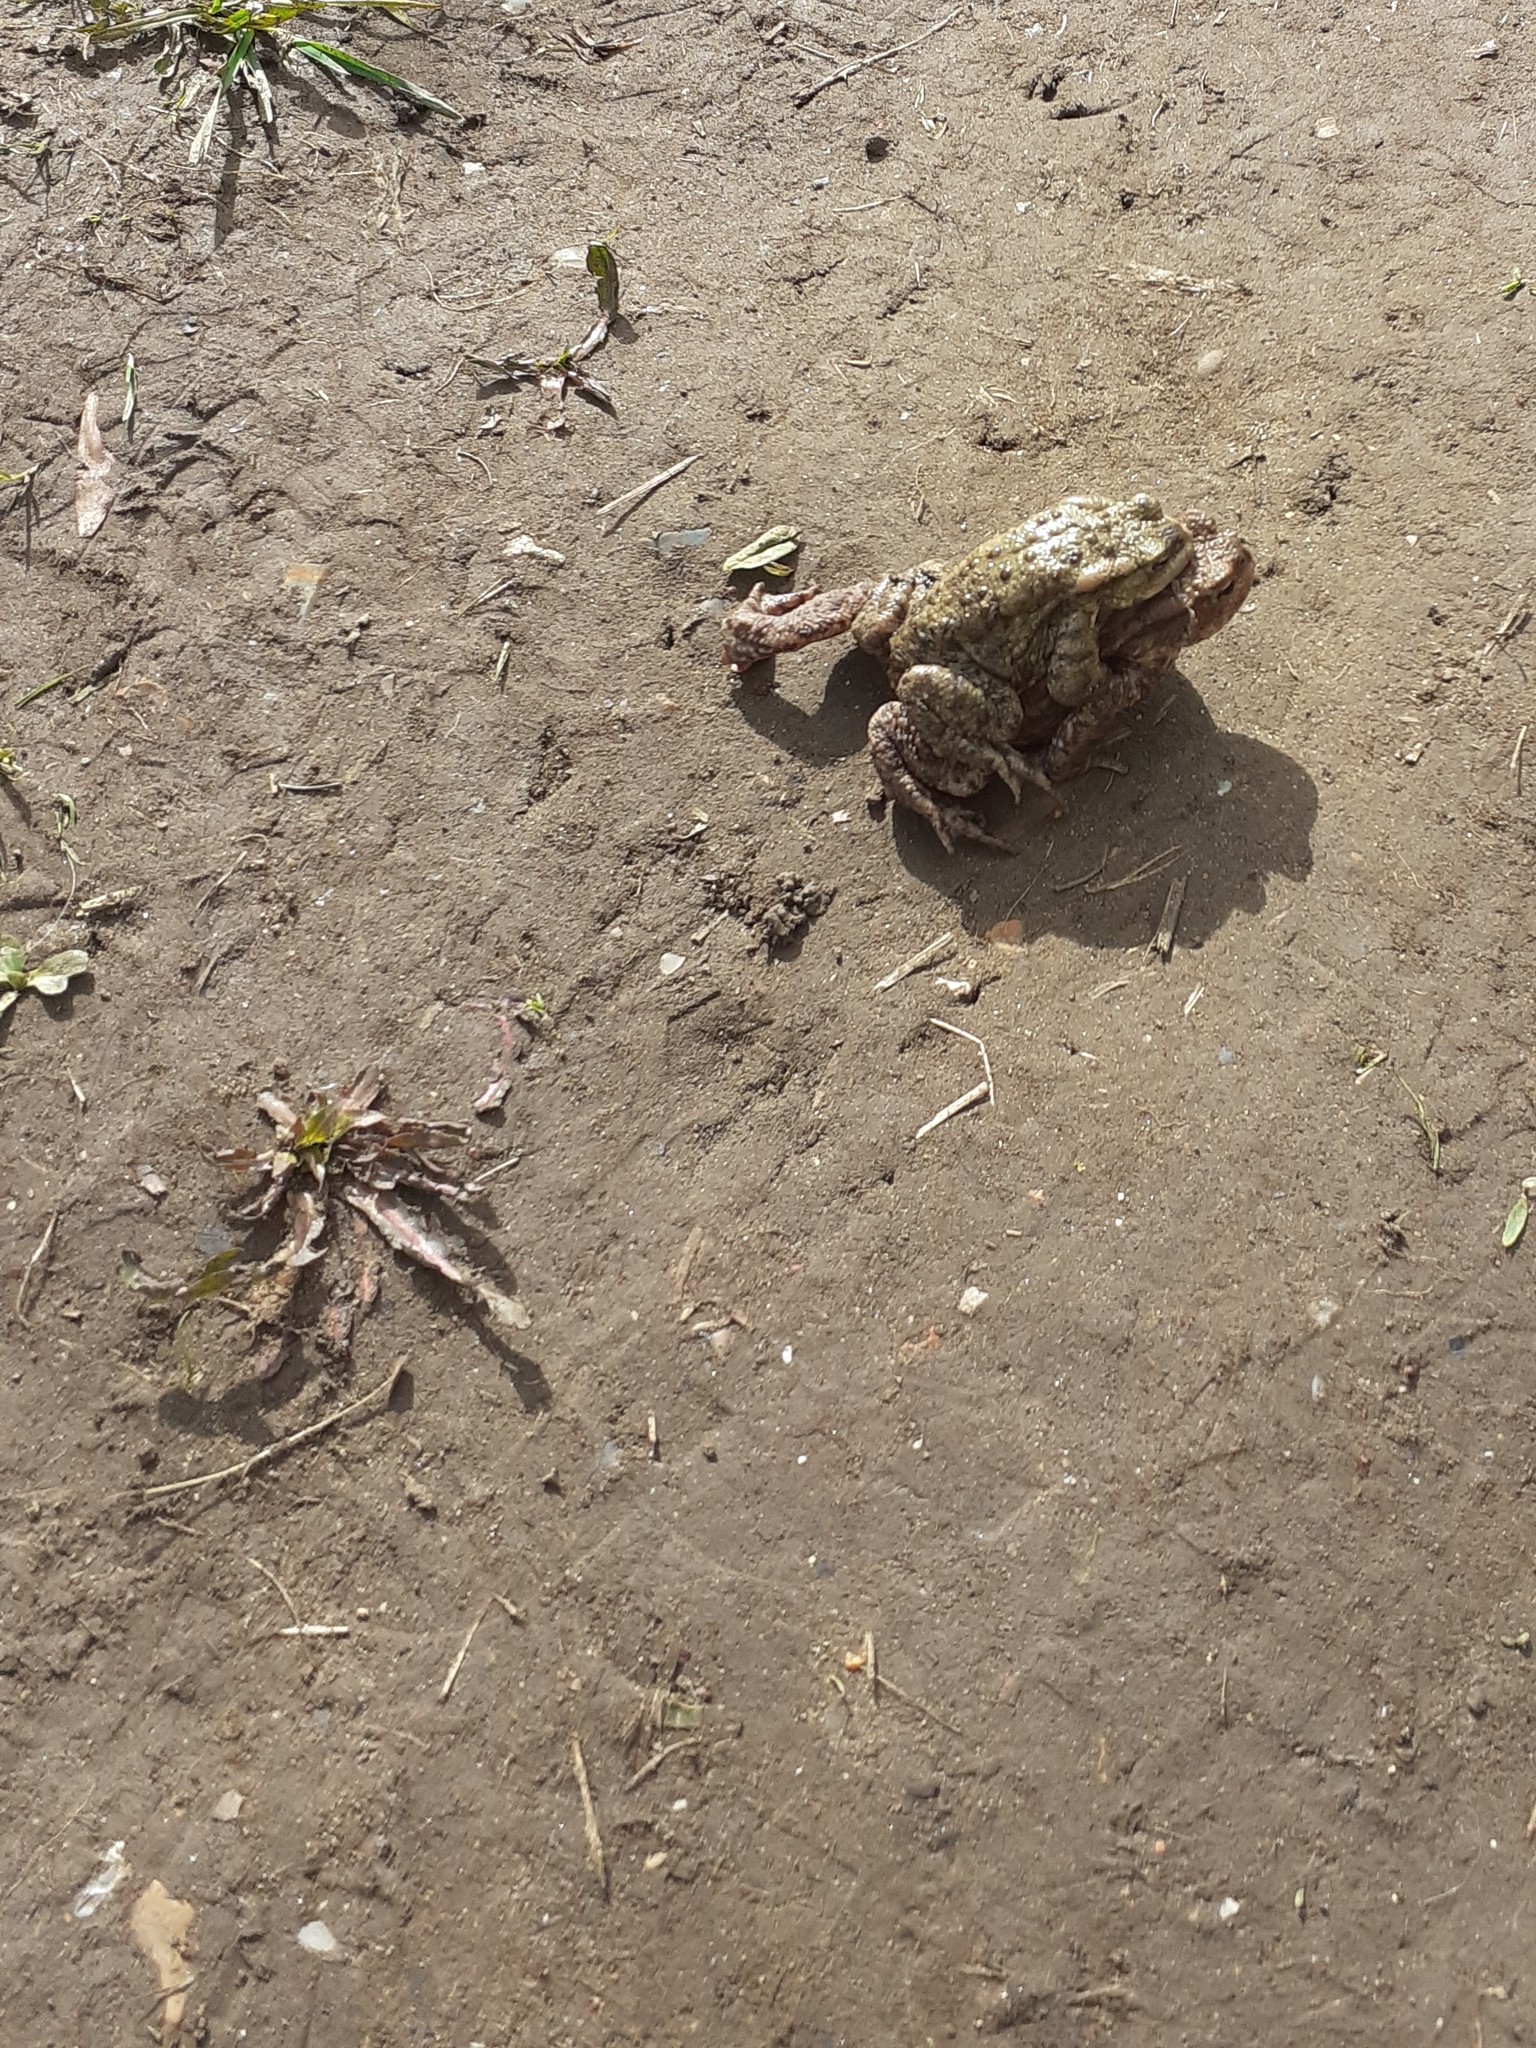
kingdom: Animalia
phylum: Chordata
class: Amphibia
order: Anura
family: Bufonidae
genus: Bufo
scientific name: Bufo bufo
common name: Common toad
